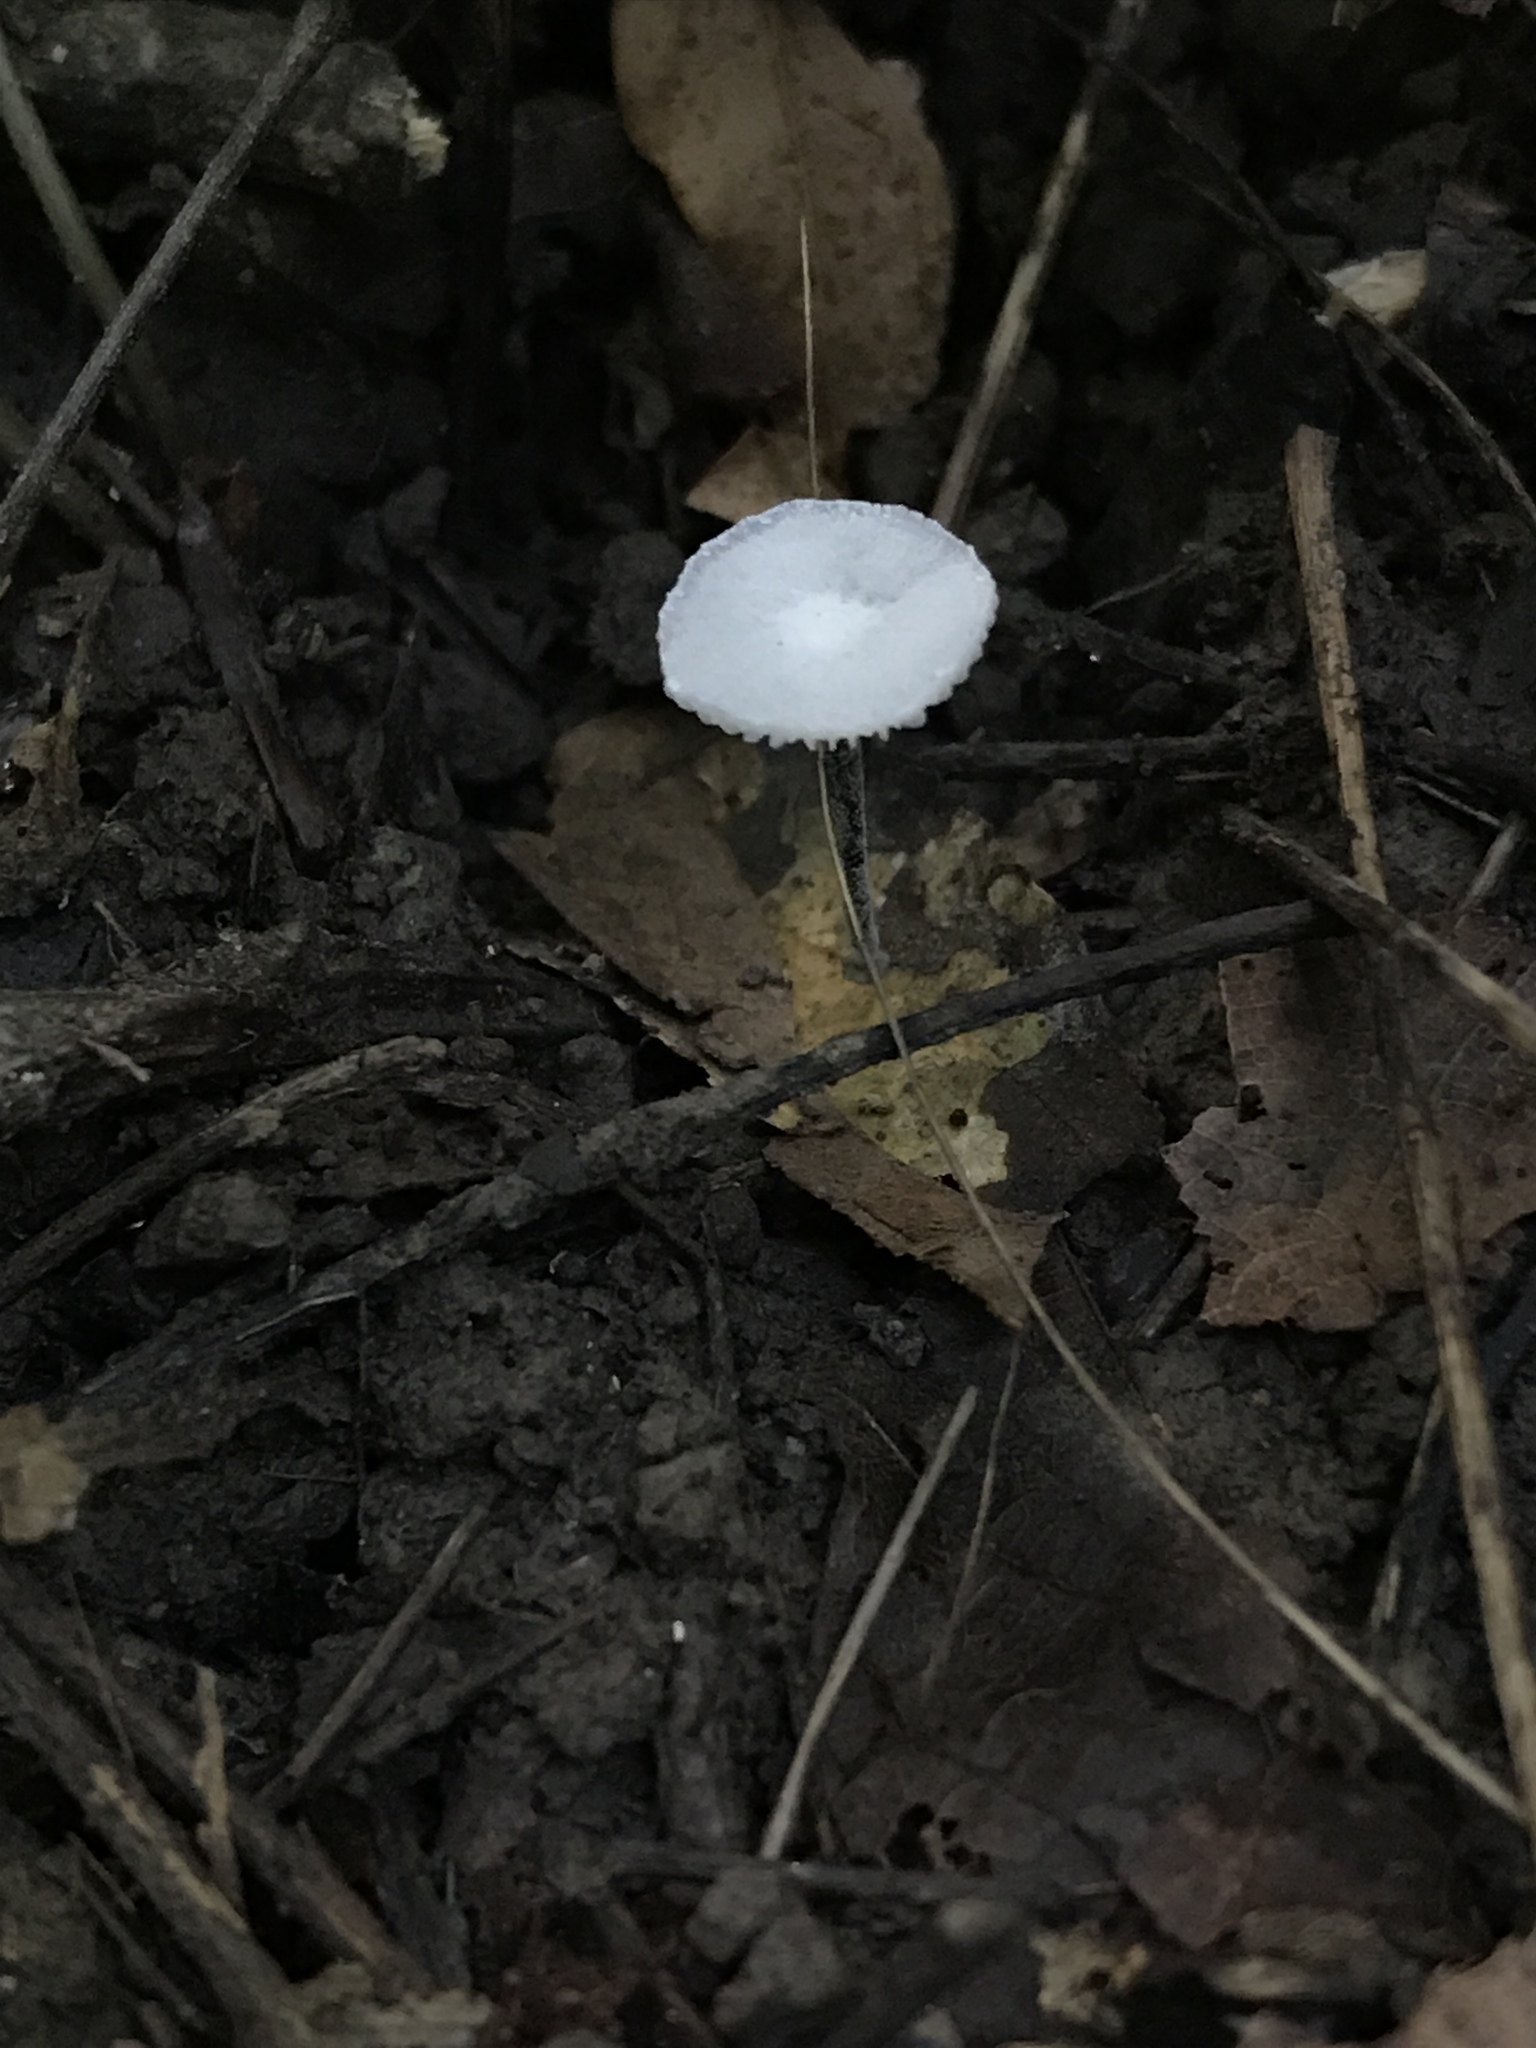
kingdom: Fungi
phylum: Basidiomycota
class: Agaricomycetes
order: Agaricales
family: Marasmiaceae
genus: Tetrapyrgos
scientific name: Tetrapyrgos nigripes
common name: Black-stalked marasmius
